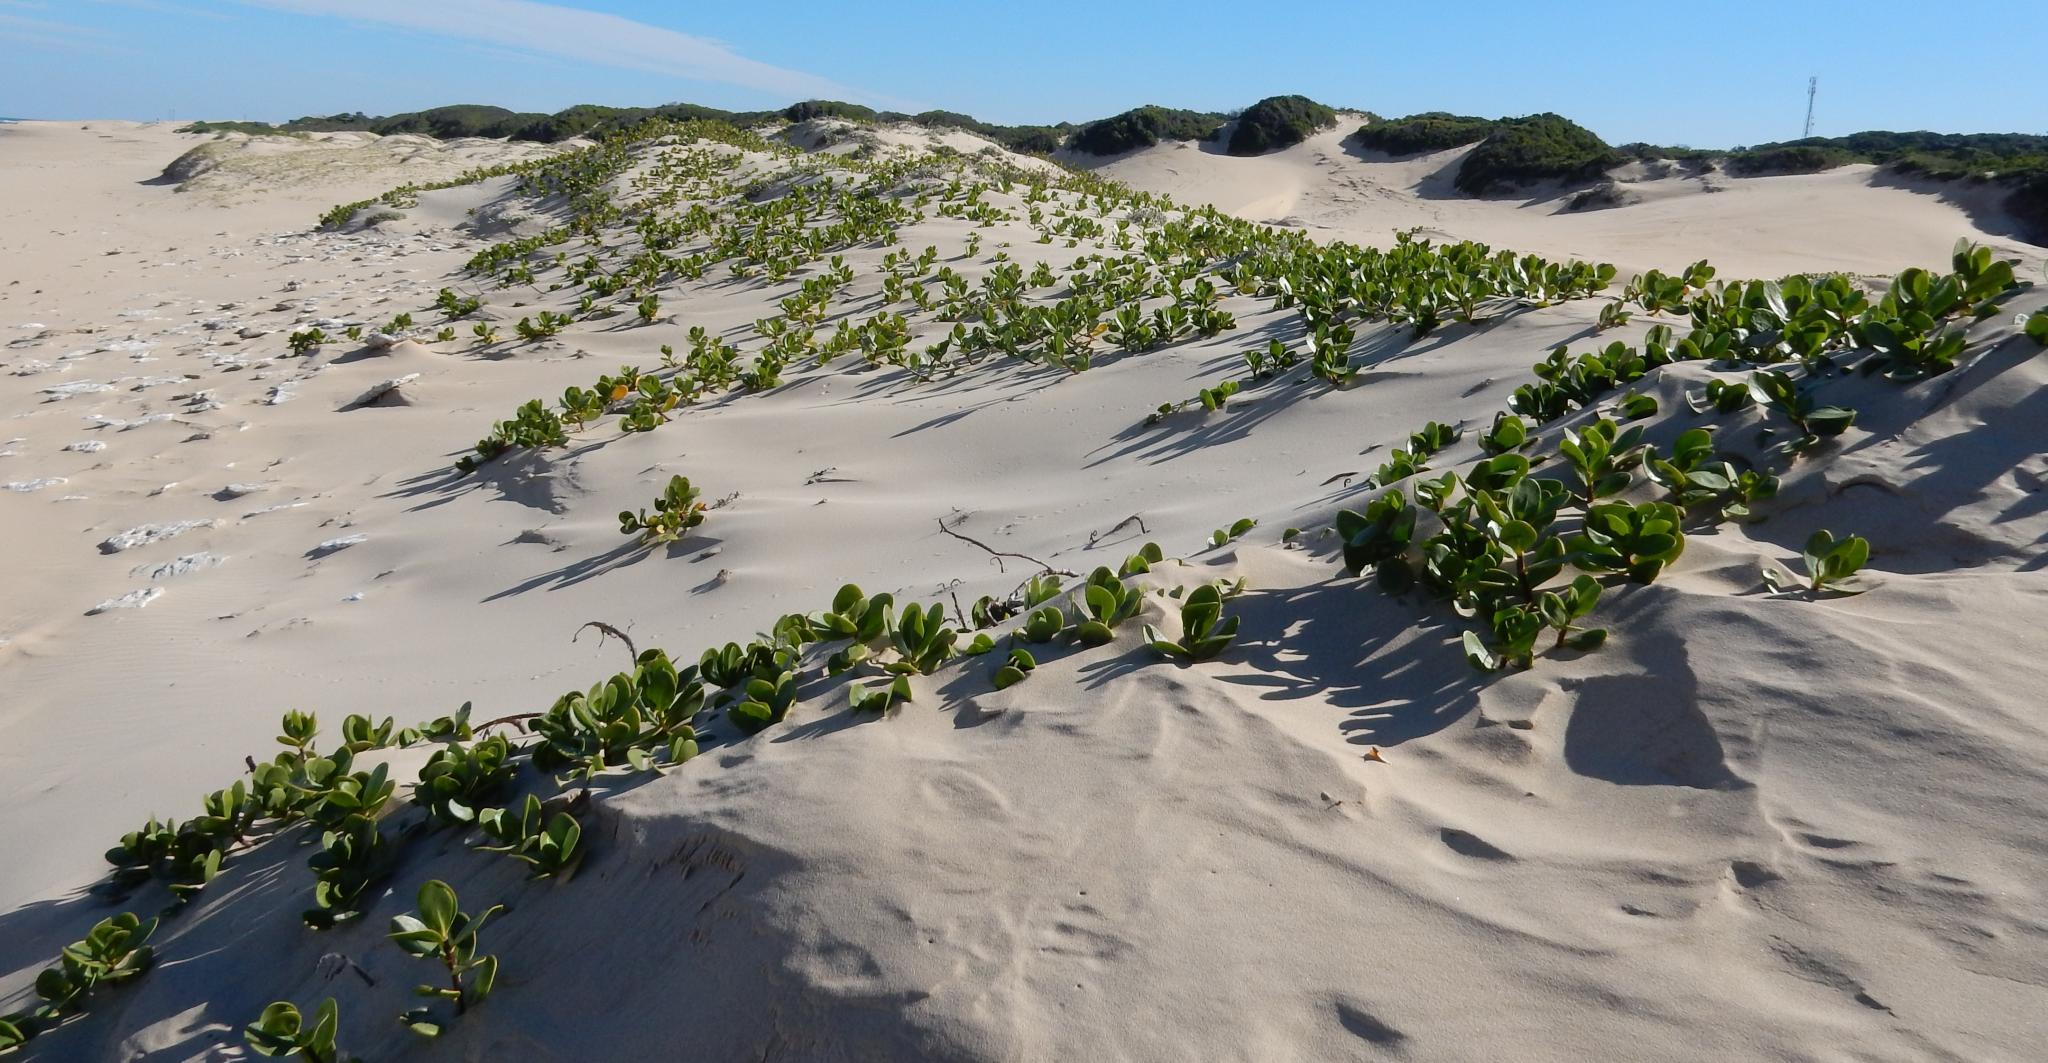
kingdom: Plantae
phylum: Tracheophyta
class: Magnoliopsida
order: Asterales
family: Goodeniaceae
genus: Scaevola
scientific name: Scaevola plumieri
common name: Gull feed
